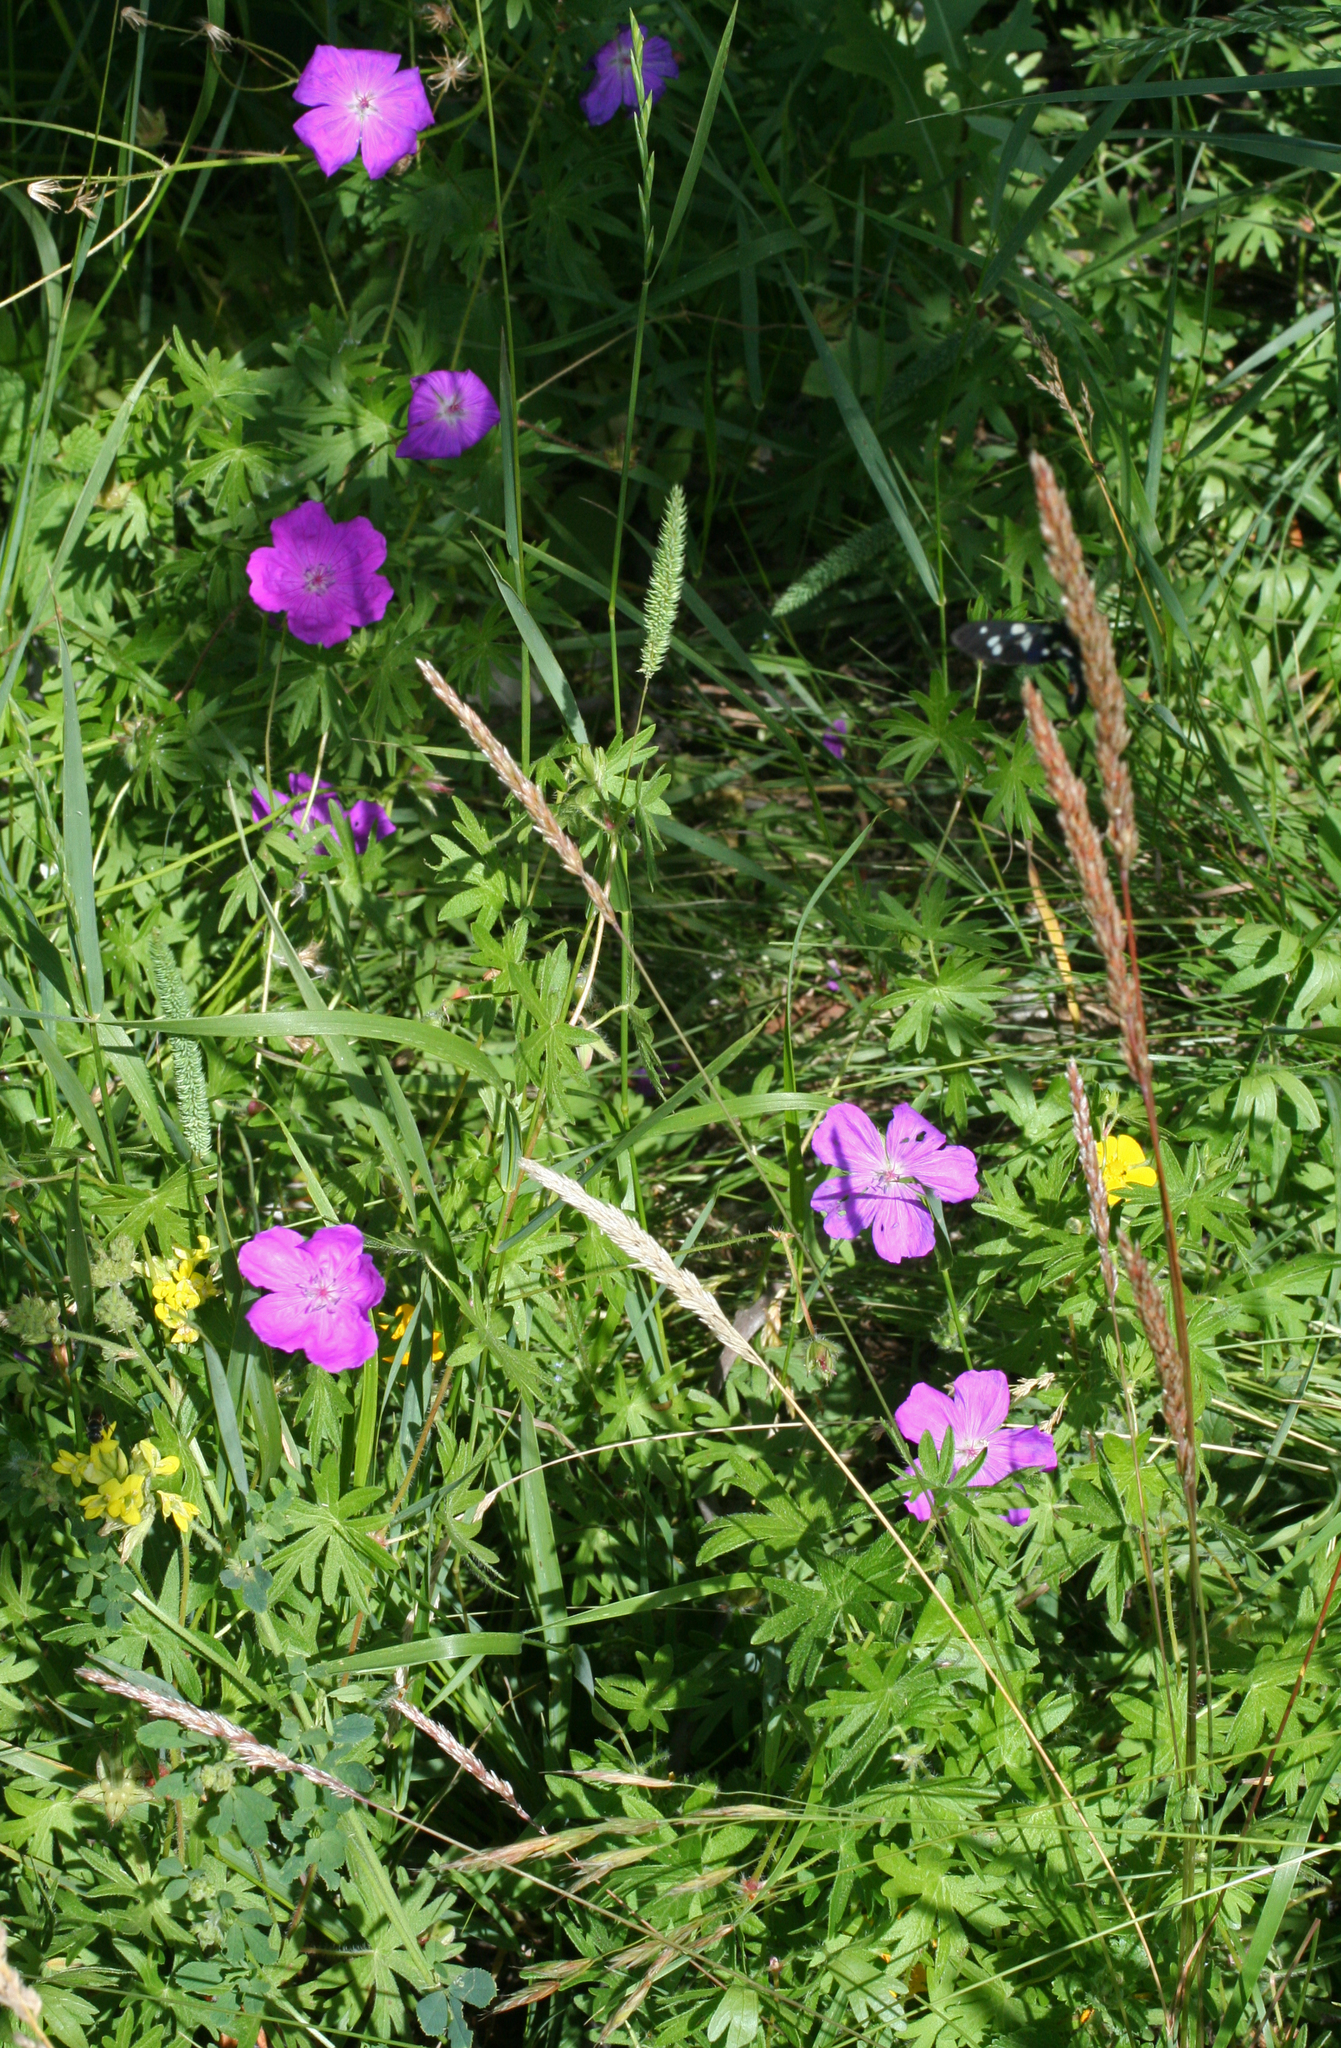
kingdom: Plantae
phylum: Tracheophyta
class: Magnoliopsida
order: Geraniales
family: Geraniaceae
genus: Geranium
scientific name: Geranium sanguineum
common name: Bloody crane's-bill
